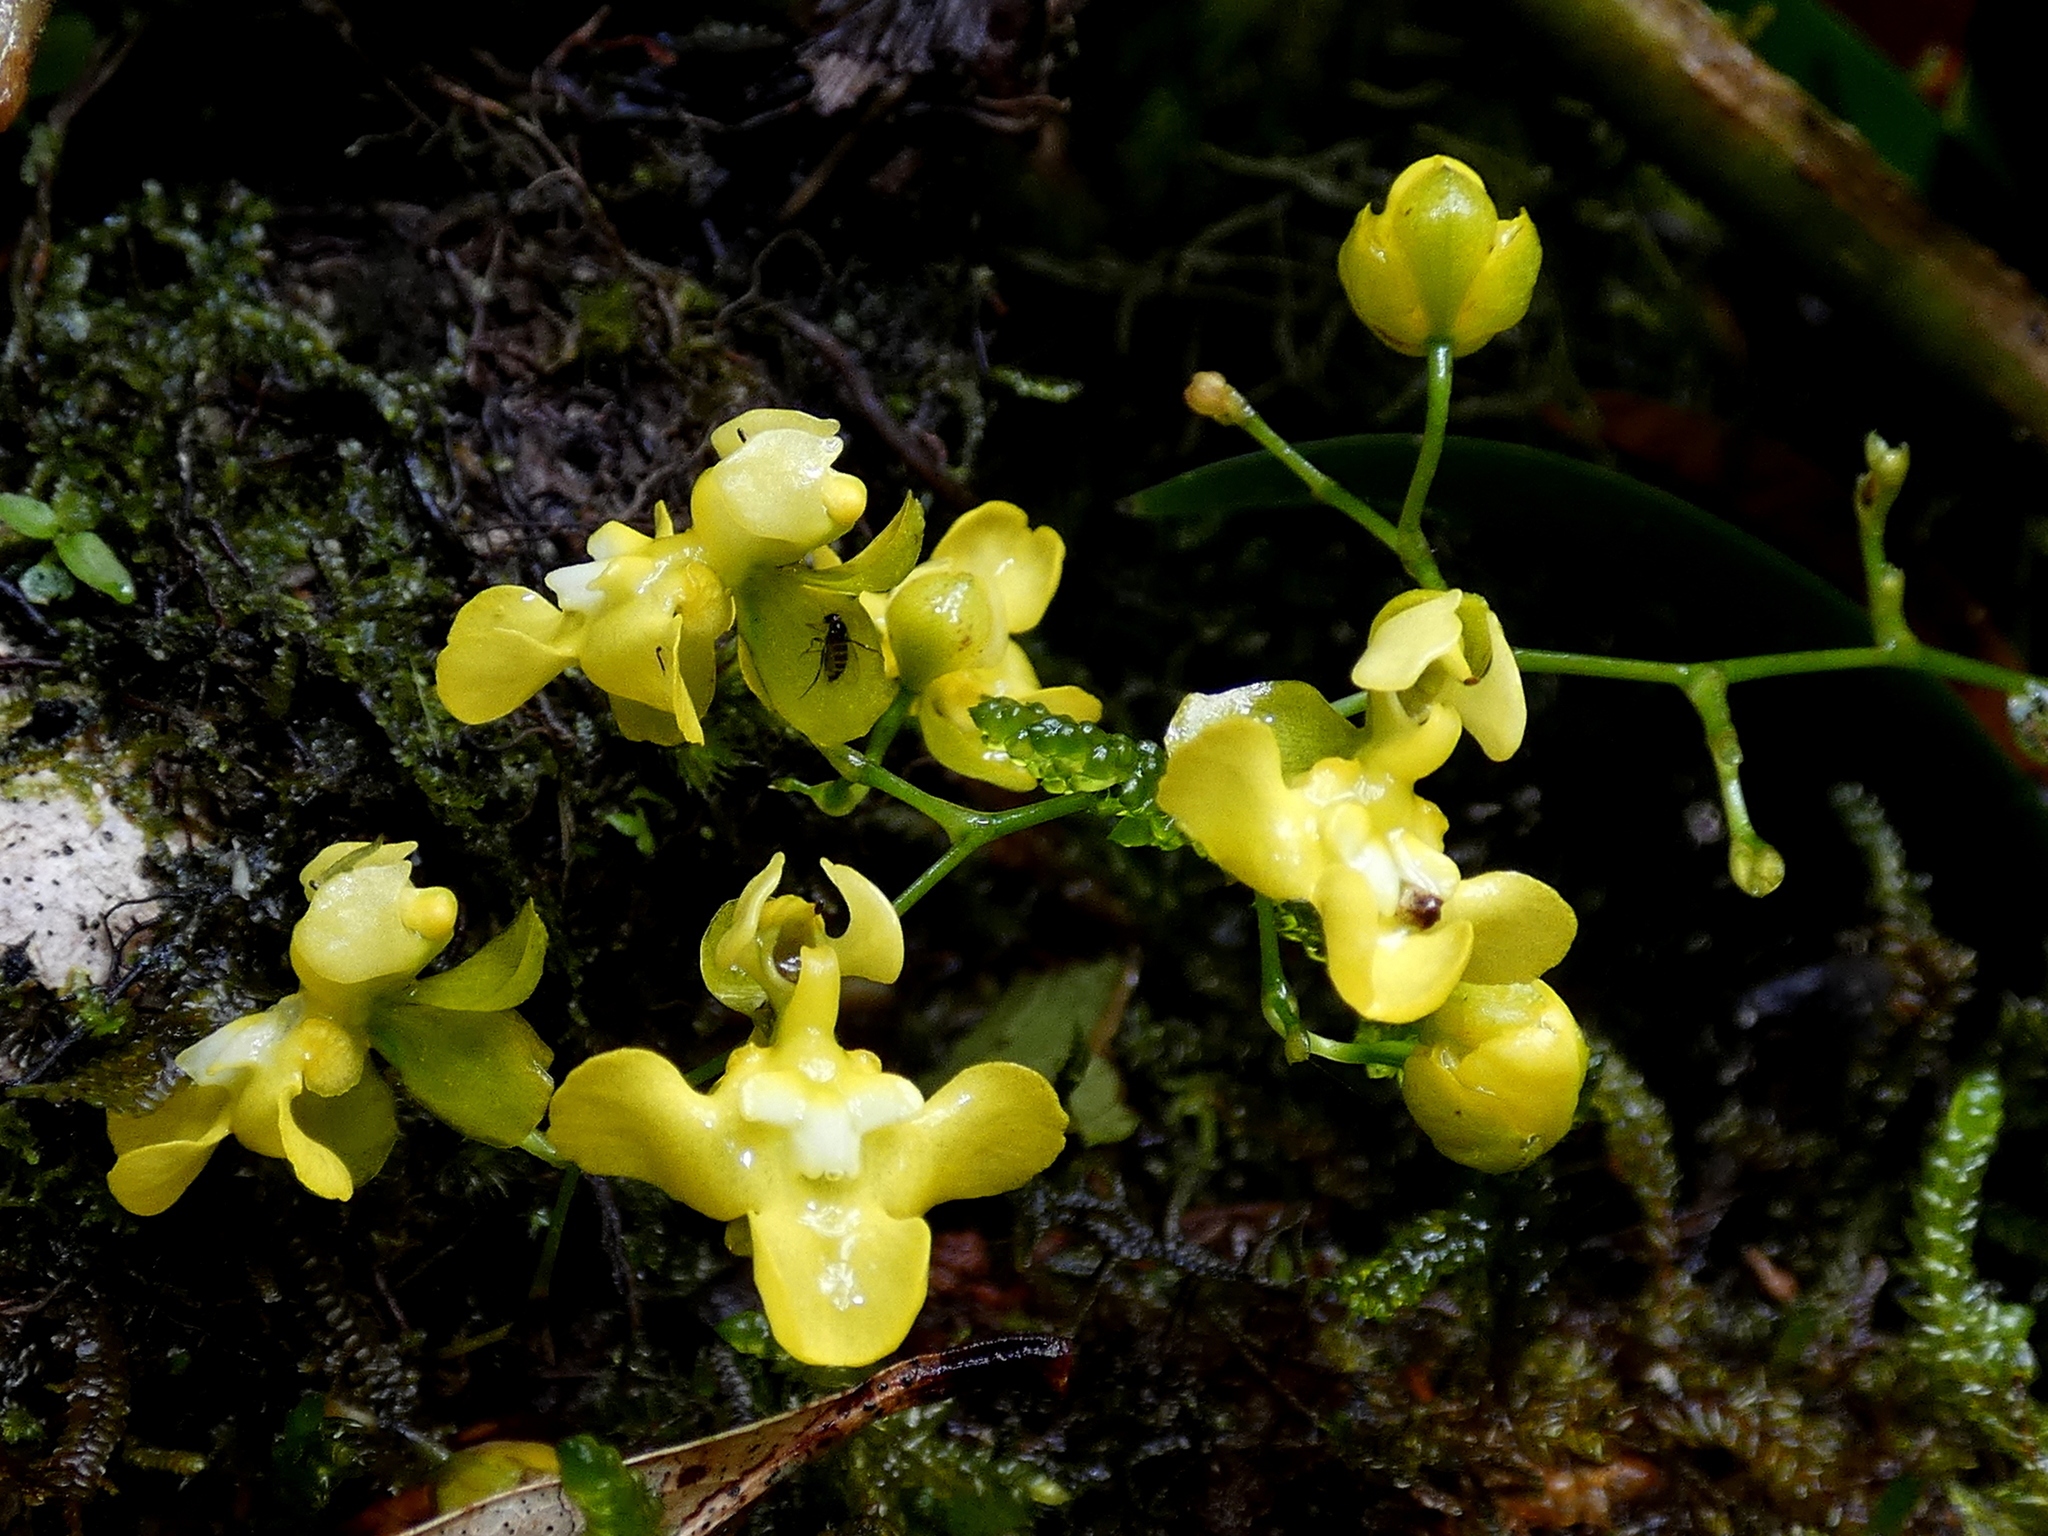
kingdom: Plantae
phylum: Tracheophyta
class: Liliopsida
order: Asparagales
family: Orchidaceae
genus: Oncidium
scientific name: Oncidium cheirophorum
